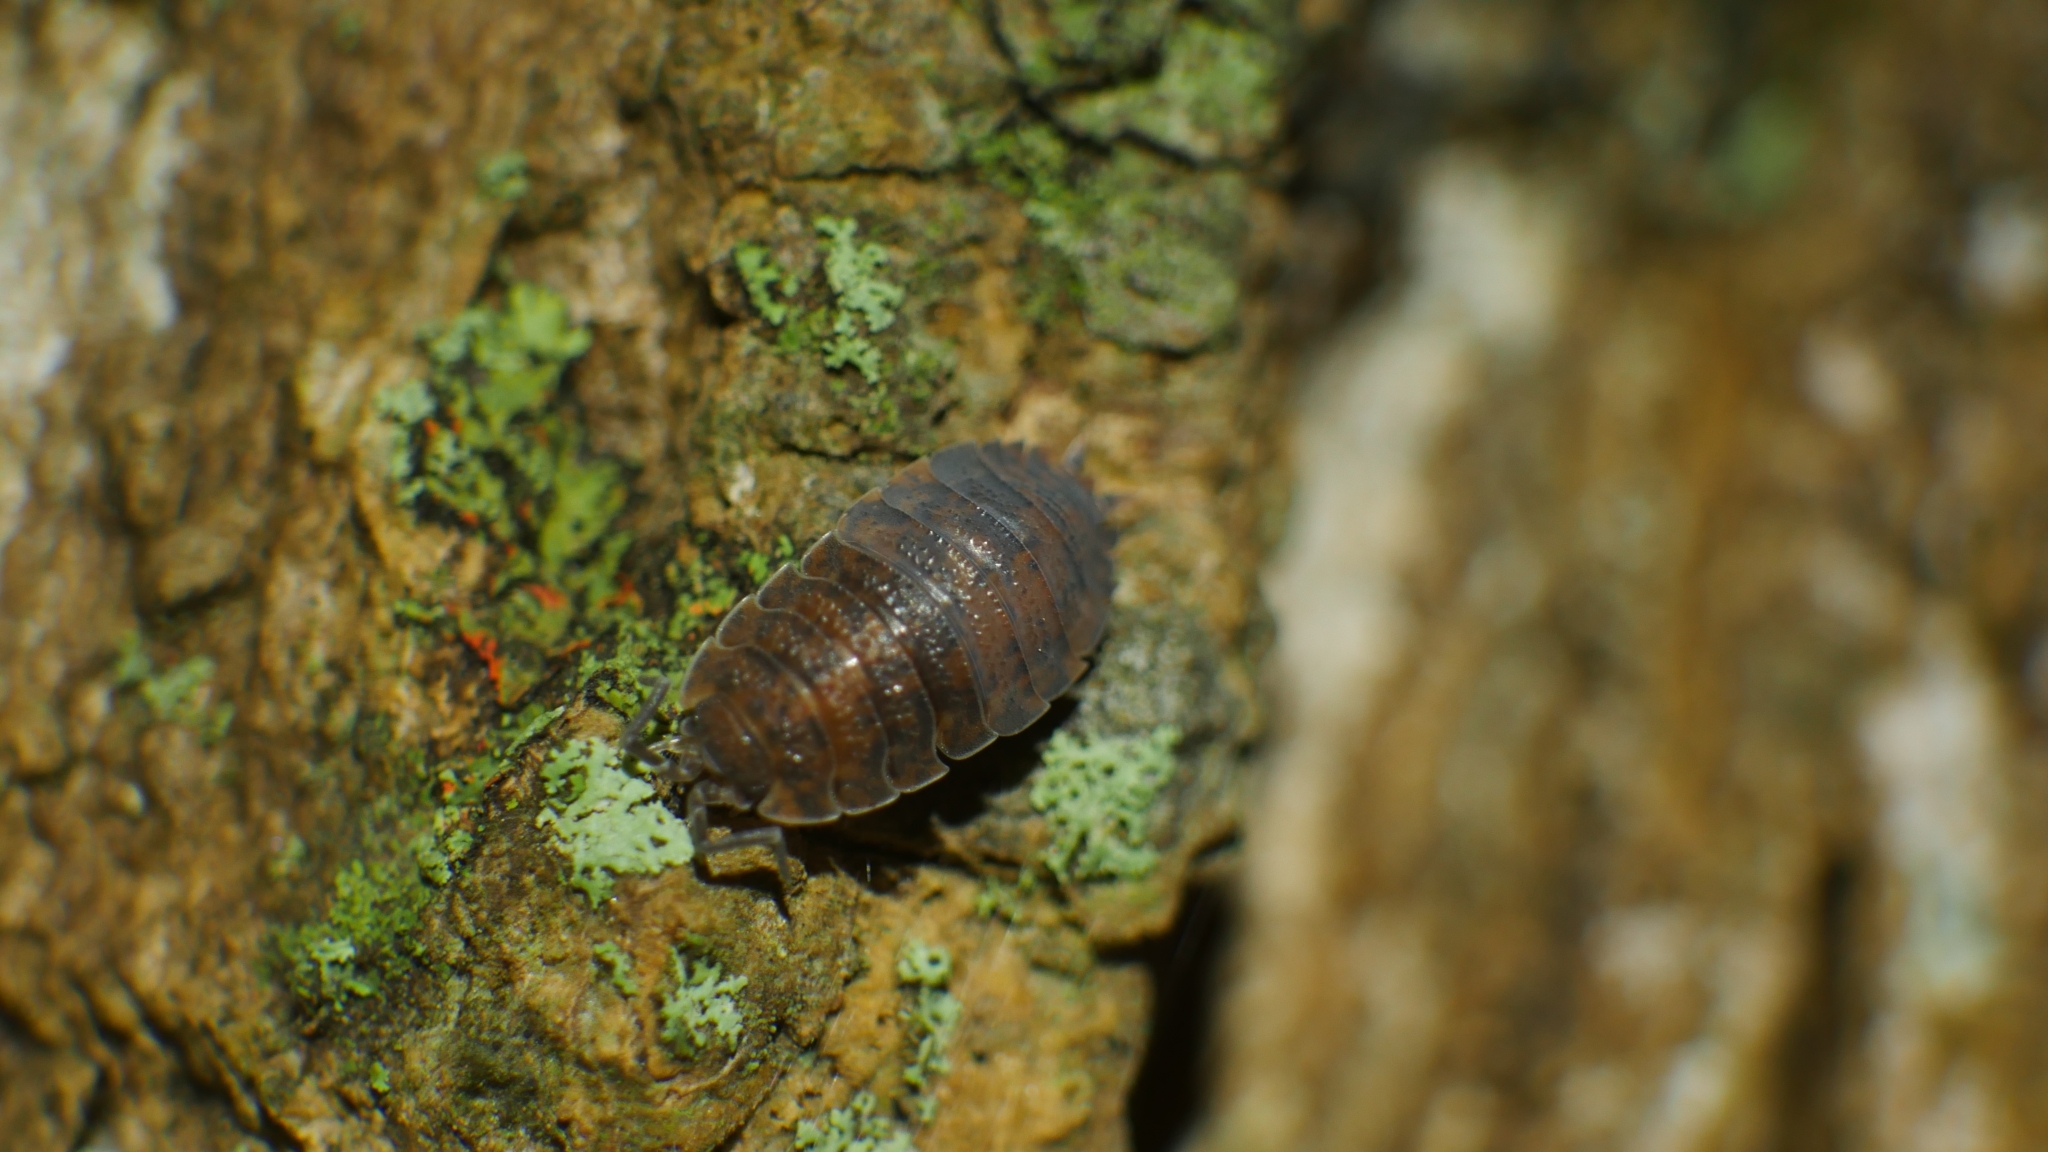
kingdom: Animalia
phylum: Arthropoda
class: Malacostraca
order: Isopoda
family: Porcellionidae
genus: Porcellio
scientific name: Porcellio scaber
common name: Common rough woodlouse
